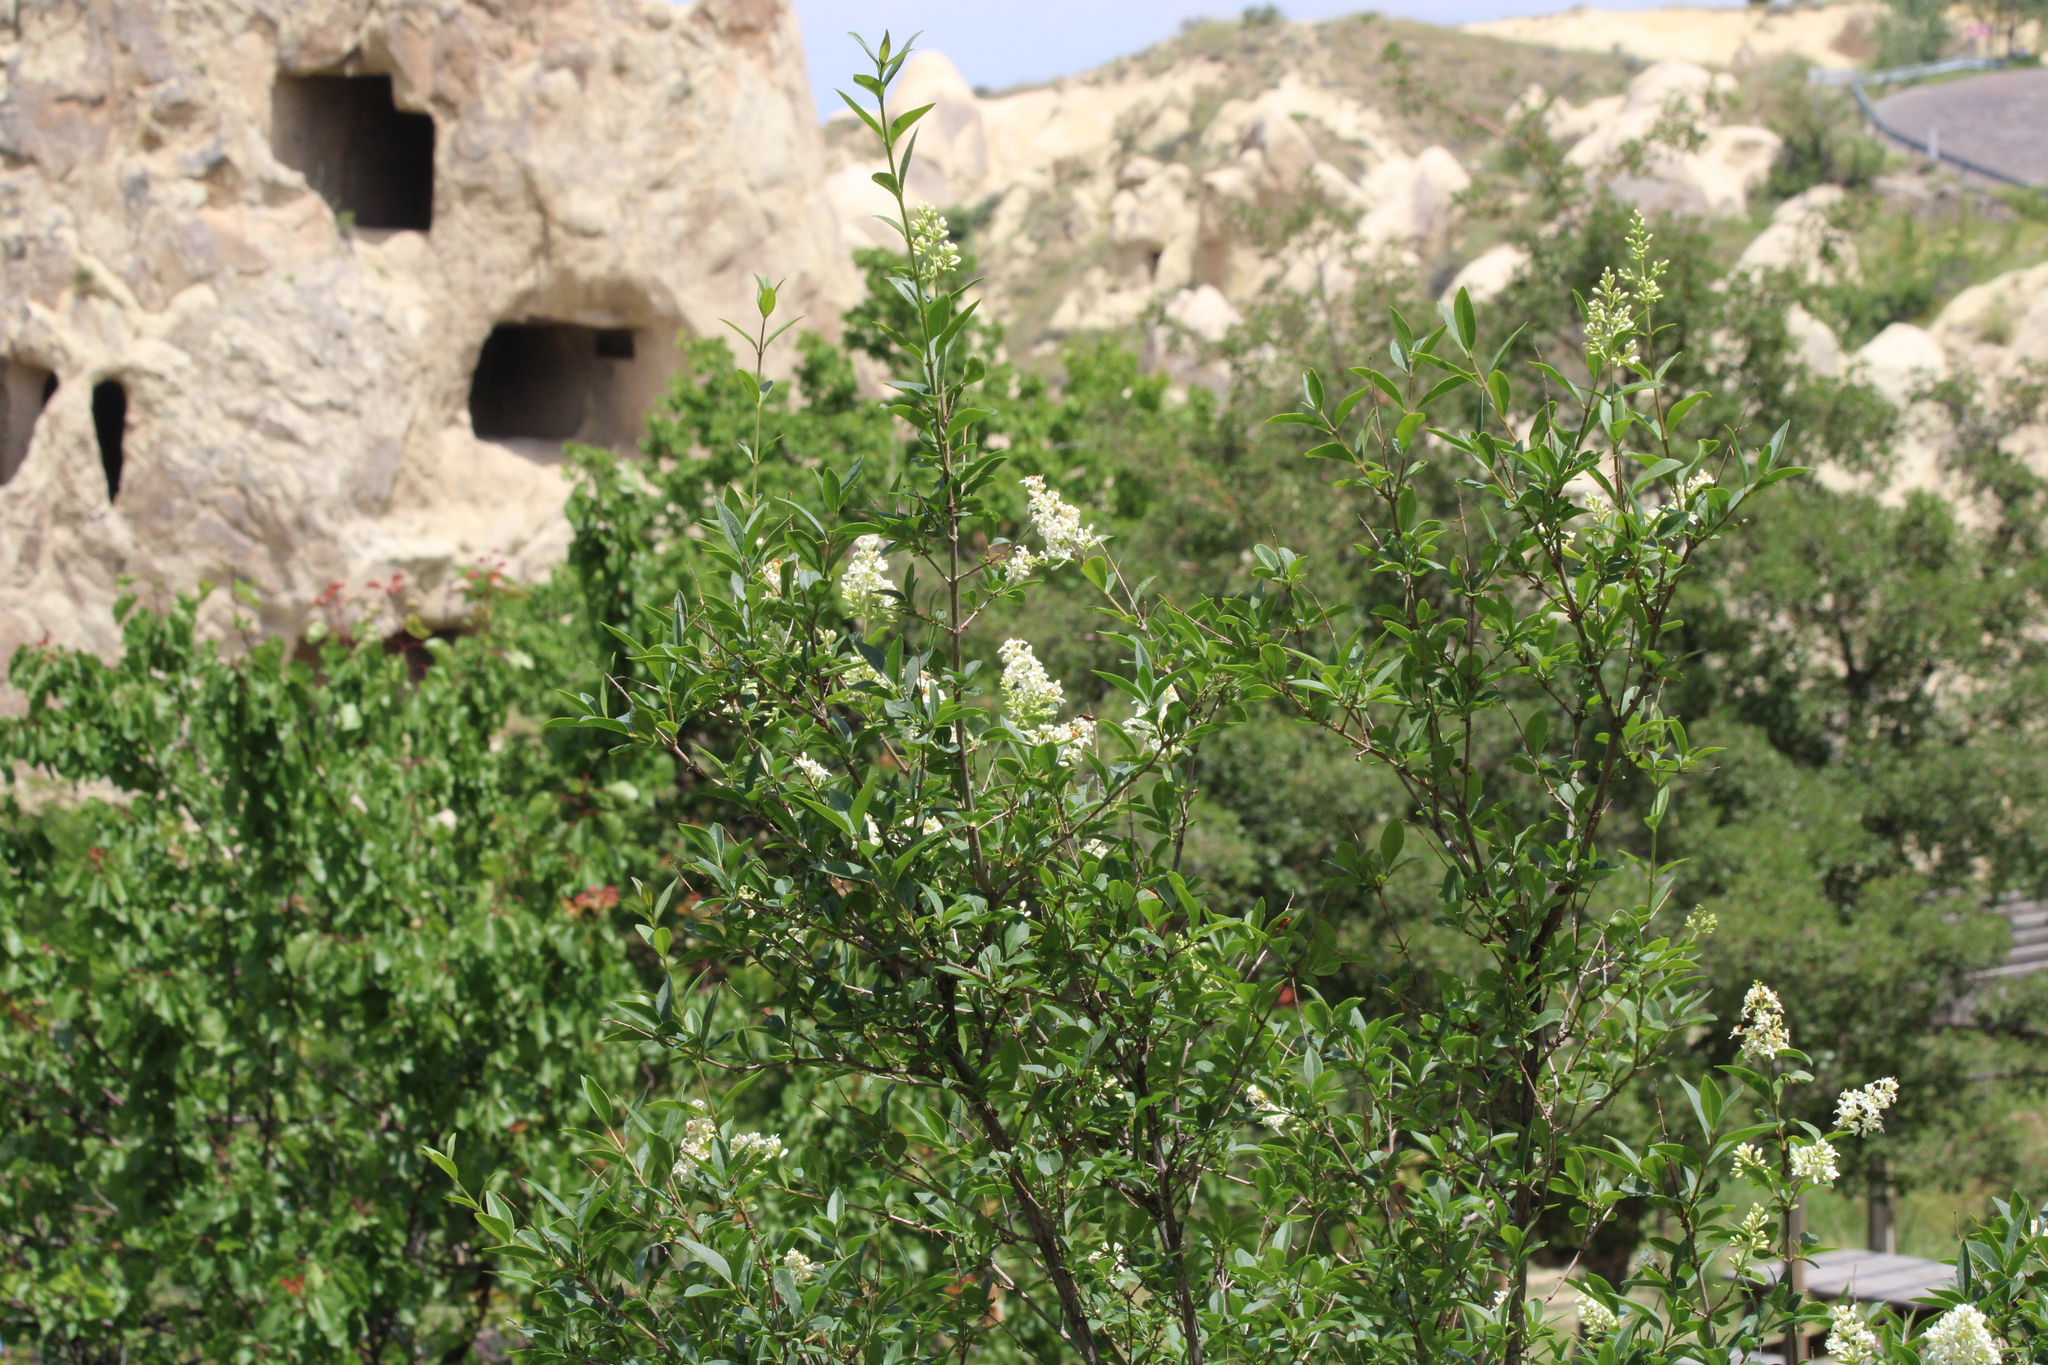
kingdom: Plantae
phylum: Tracheophyta
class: Magnoliopsida
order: Lamiales
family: Oleaceae
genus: Ligustrum
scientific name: Ligustrum vulgare
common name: Wild privet
